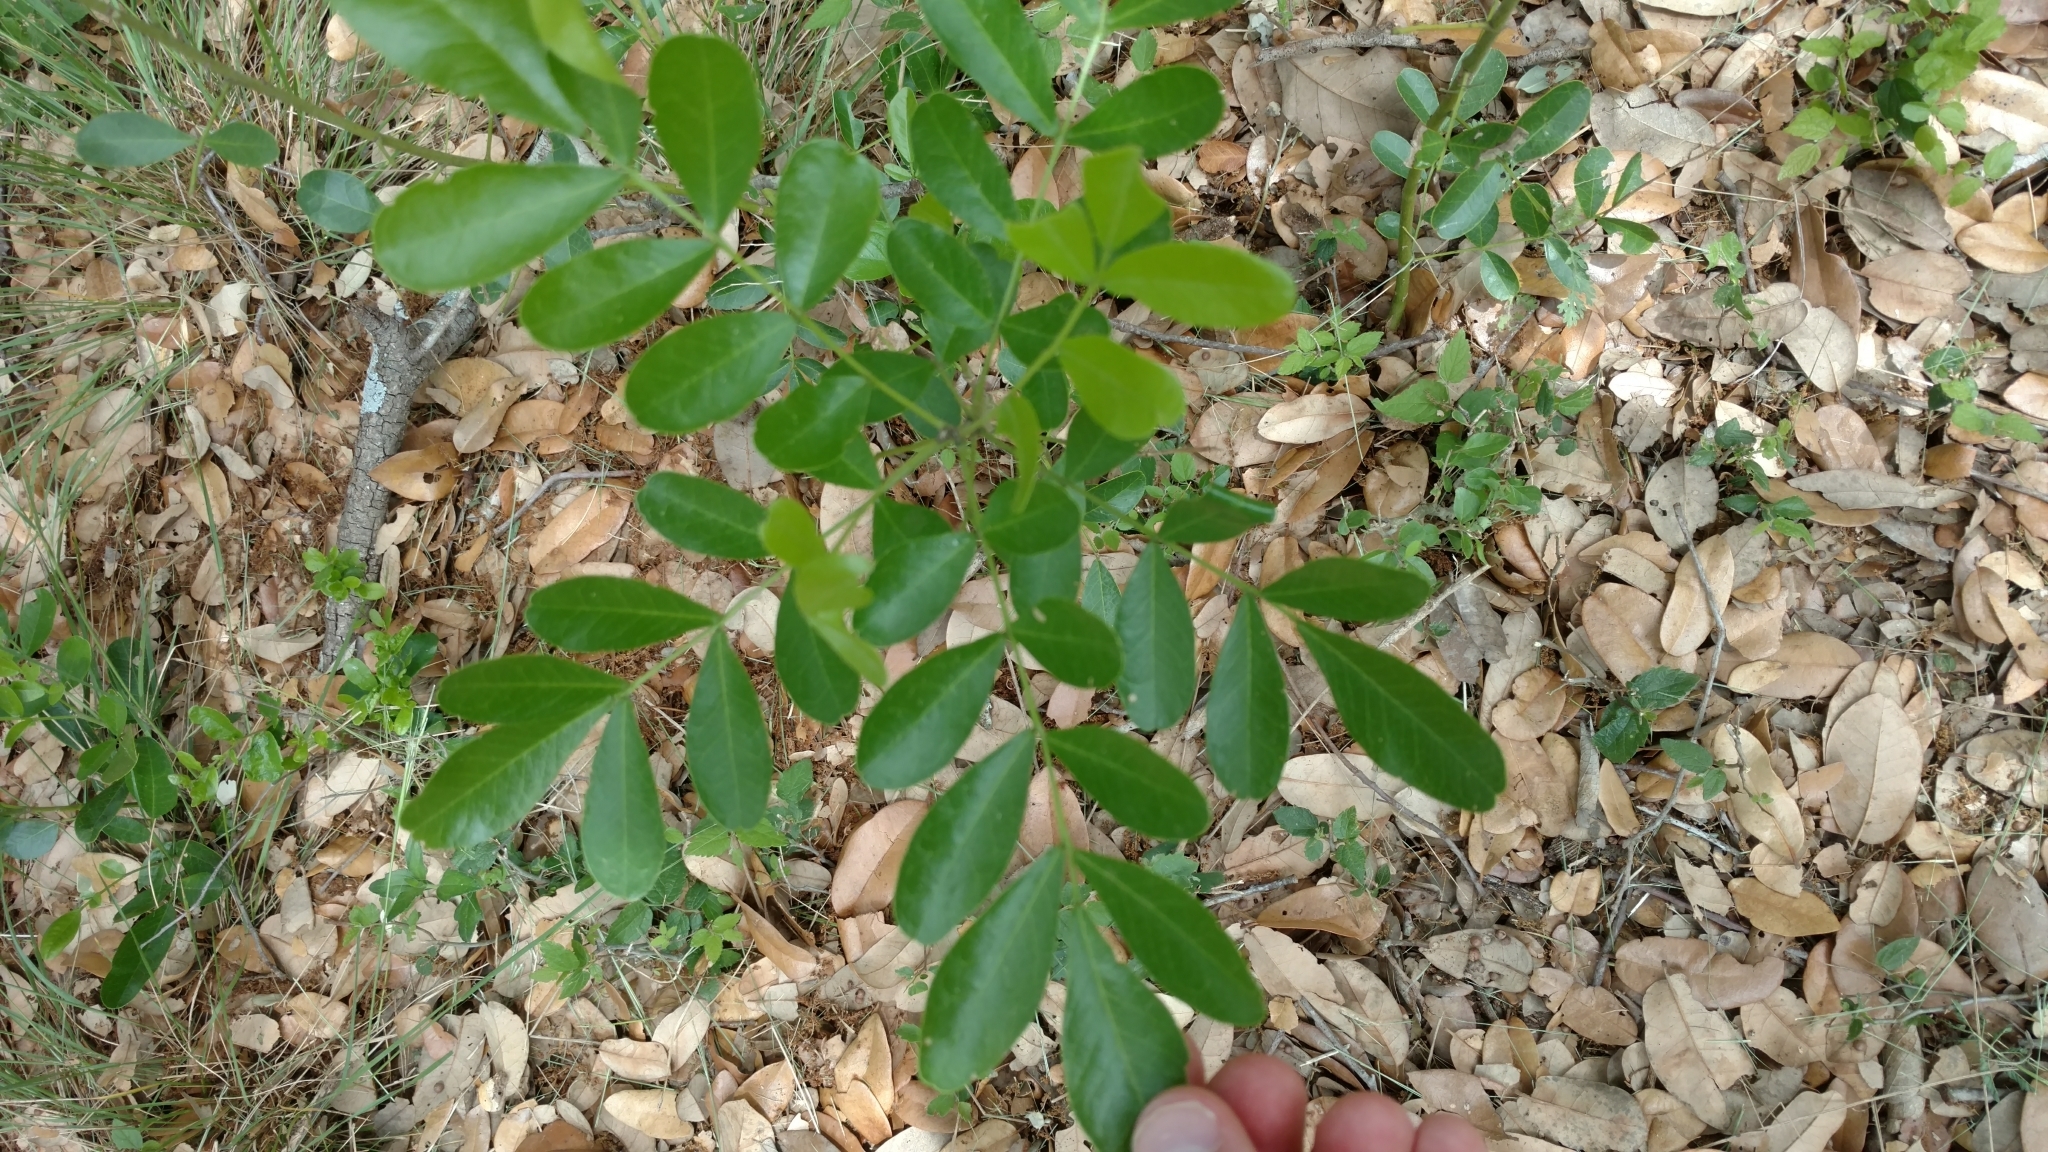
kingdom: Plantae
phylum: Tracheophyta
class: Magnoliopsida
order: Fabales
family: Fabaceae
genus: Dermatophyllum
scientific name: Dermatophyllum secundiflorum
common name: Texas-mountain-laurel
